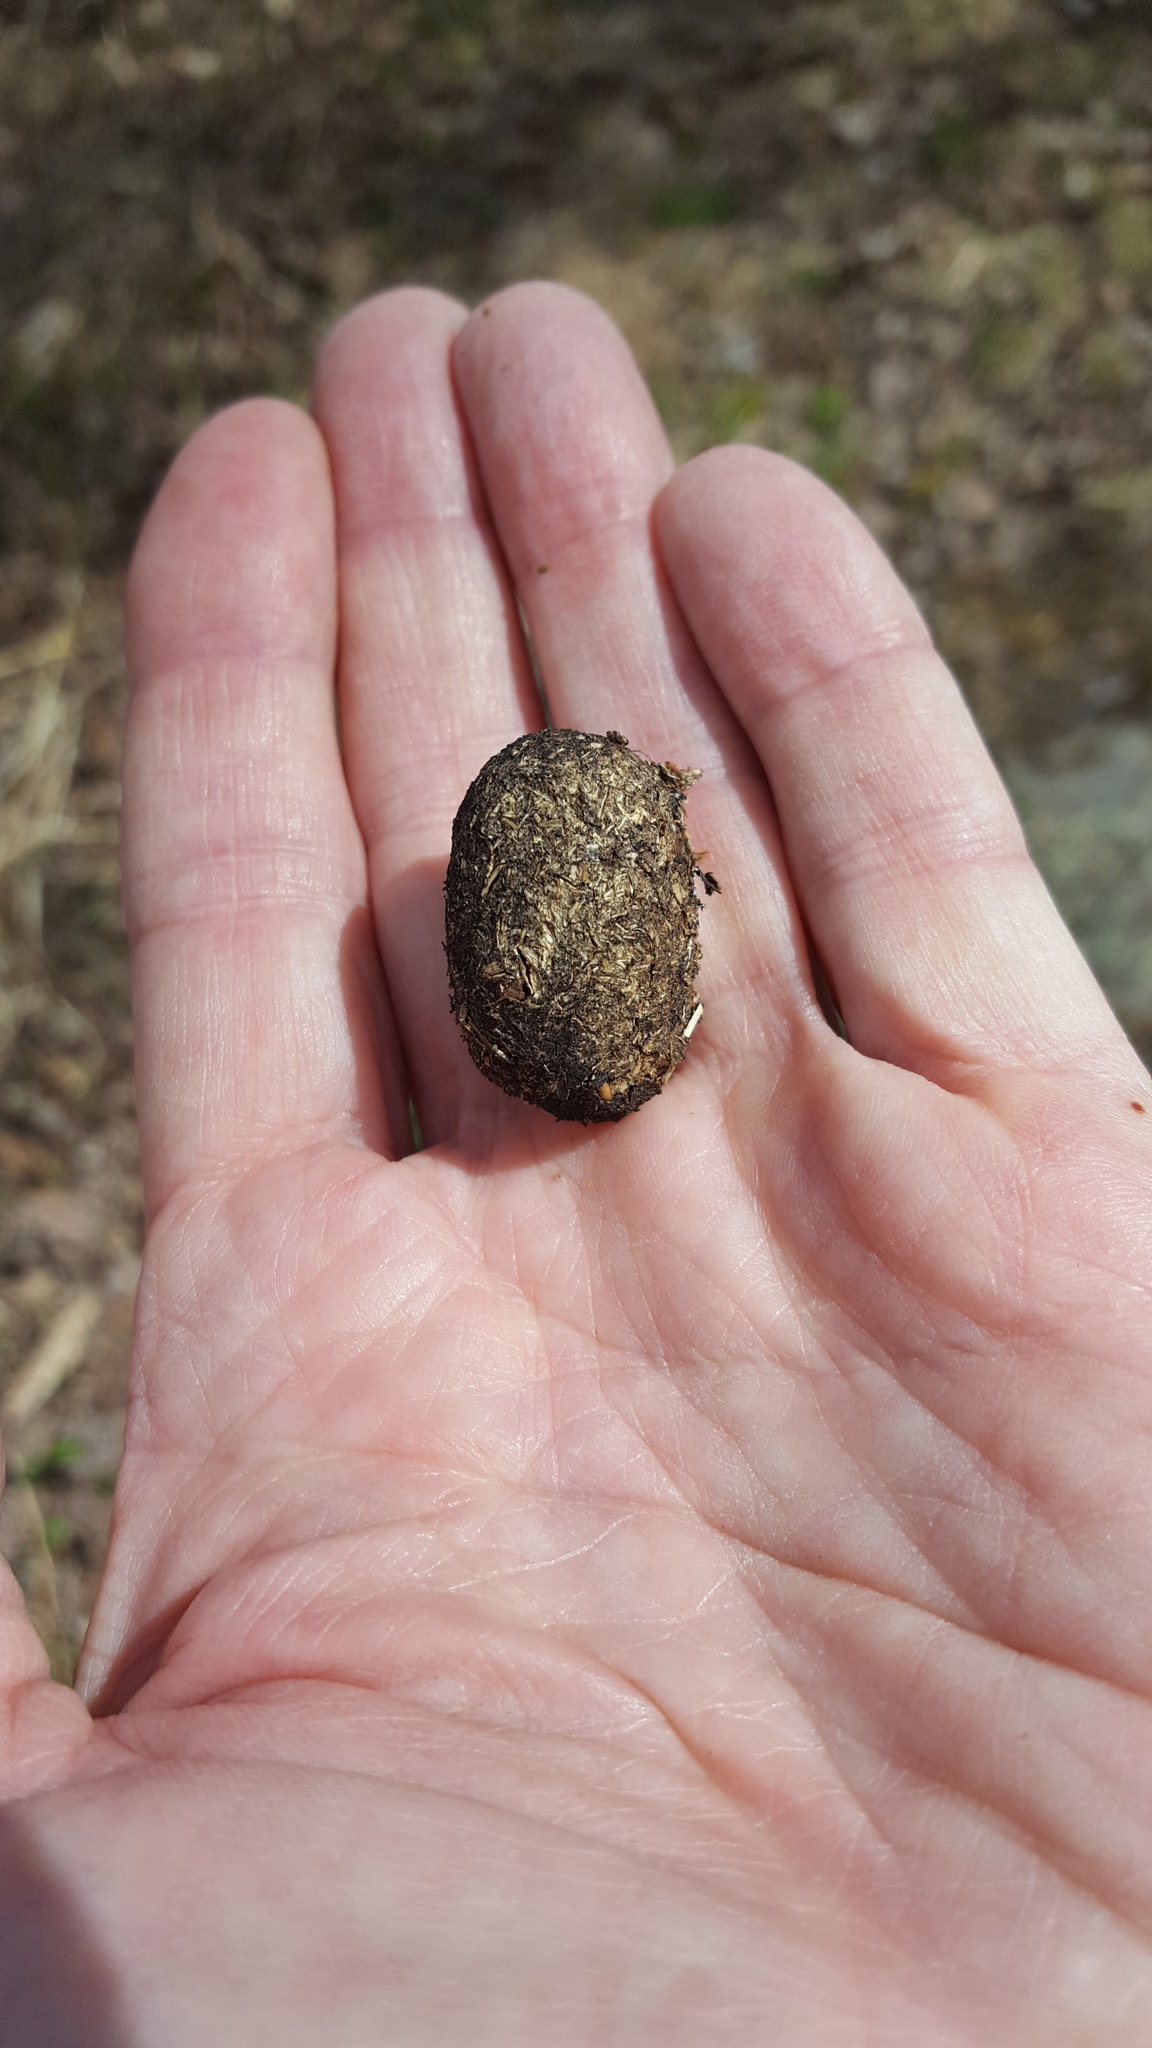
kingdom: Animalia
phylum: Chordata
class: Mammalia
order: Artiodactyla
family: Cervidae
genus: Alces
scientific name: Alces alces
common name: Moose
